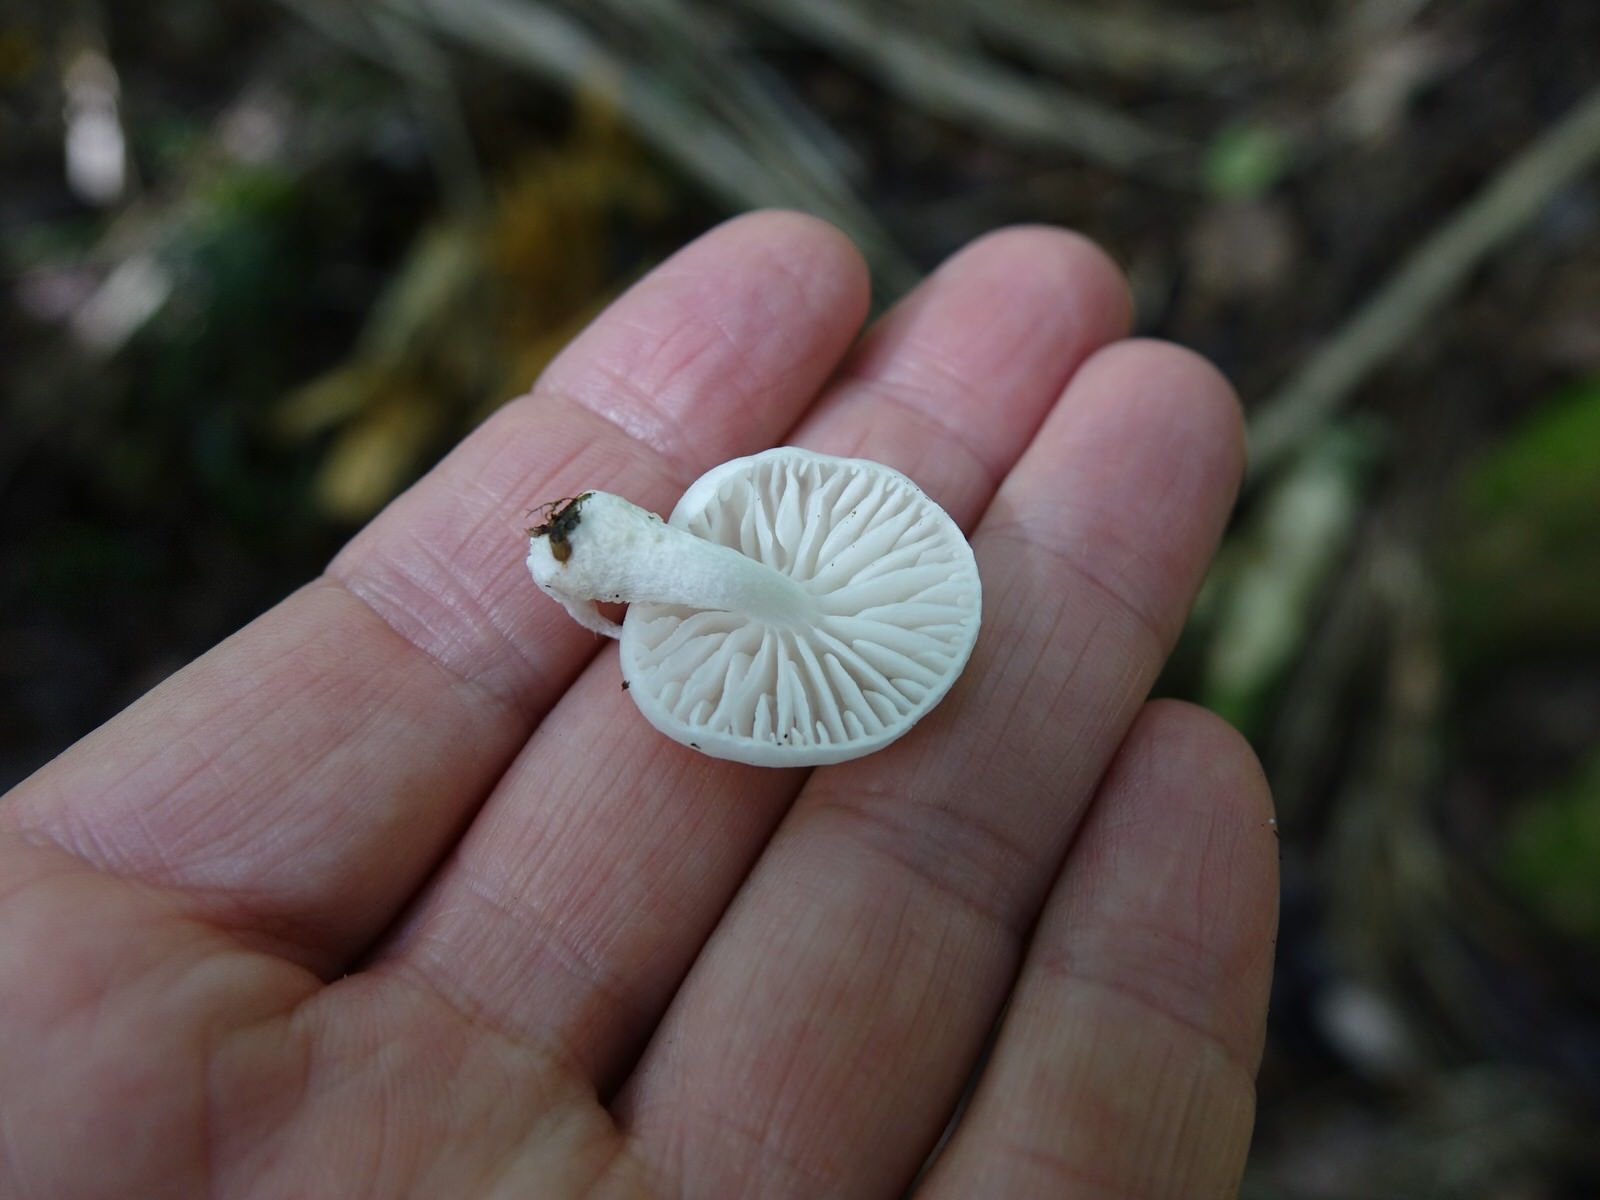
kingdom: Fungi
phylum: Basidiomycota
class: Agaricomycetes
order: Agaricales
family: Physalacriaceae
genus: Oudemansiella
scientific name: Oudemansiella australis
